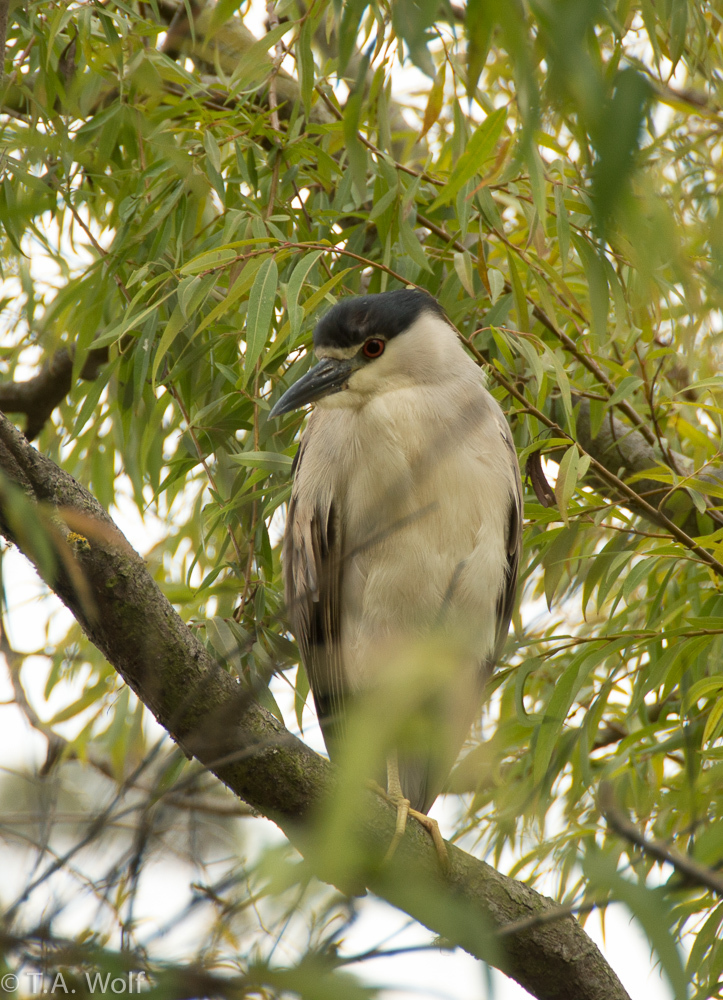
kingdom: Animalia
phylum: Chordata
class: Aves
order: Pelecaniformes
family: Ardeidae
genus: Nycticorax
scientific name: Nycticorax nycticorax
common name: Black-crowned night heron
